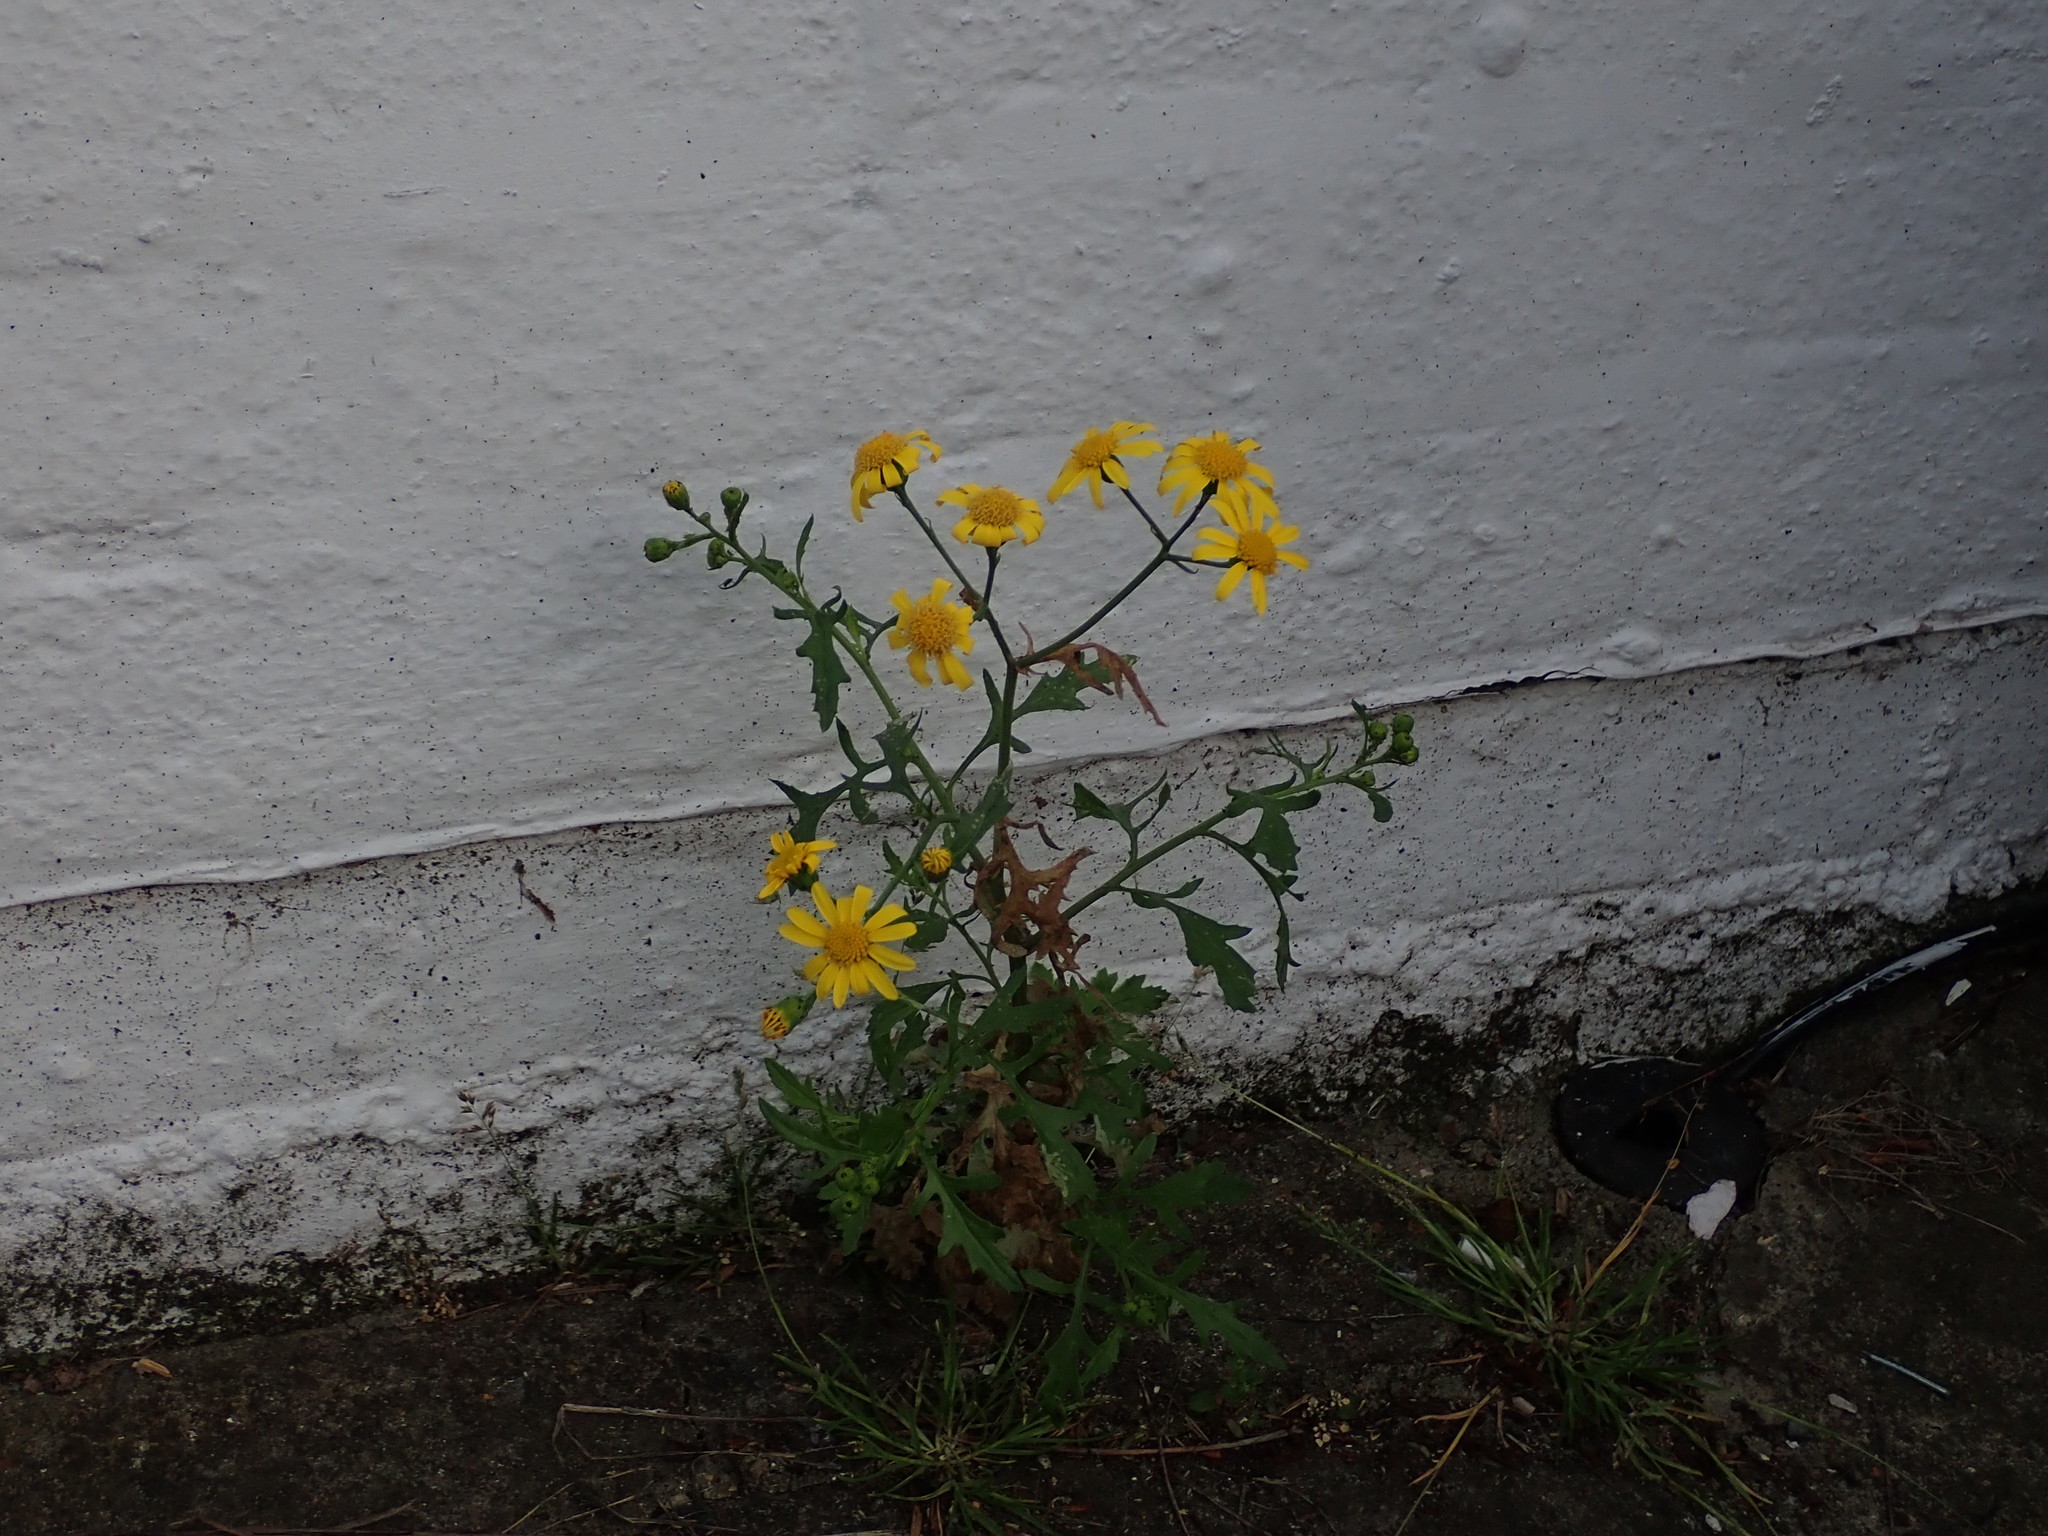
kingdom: Plantae
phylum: Tracheophyta
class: Magnoliopsida
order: Asterales
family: Asteraceae
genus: Senecio
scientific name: Senecio squalidus
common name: Oxford ragwort
